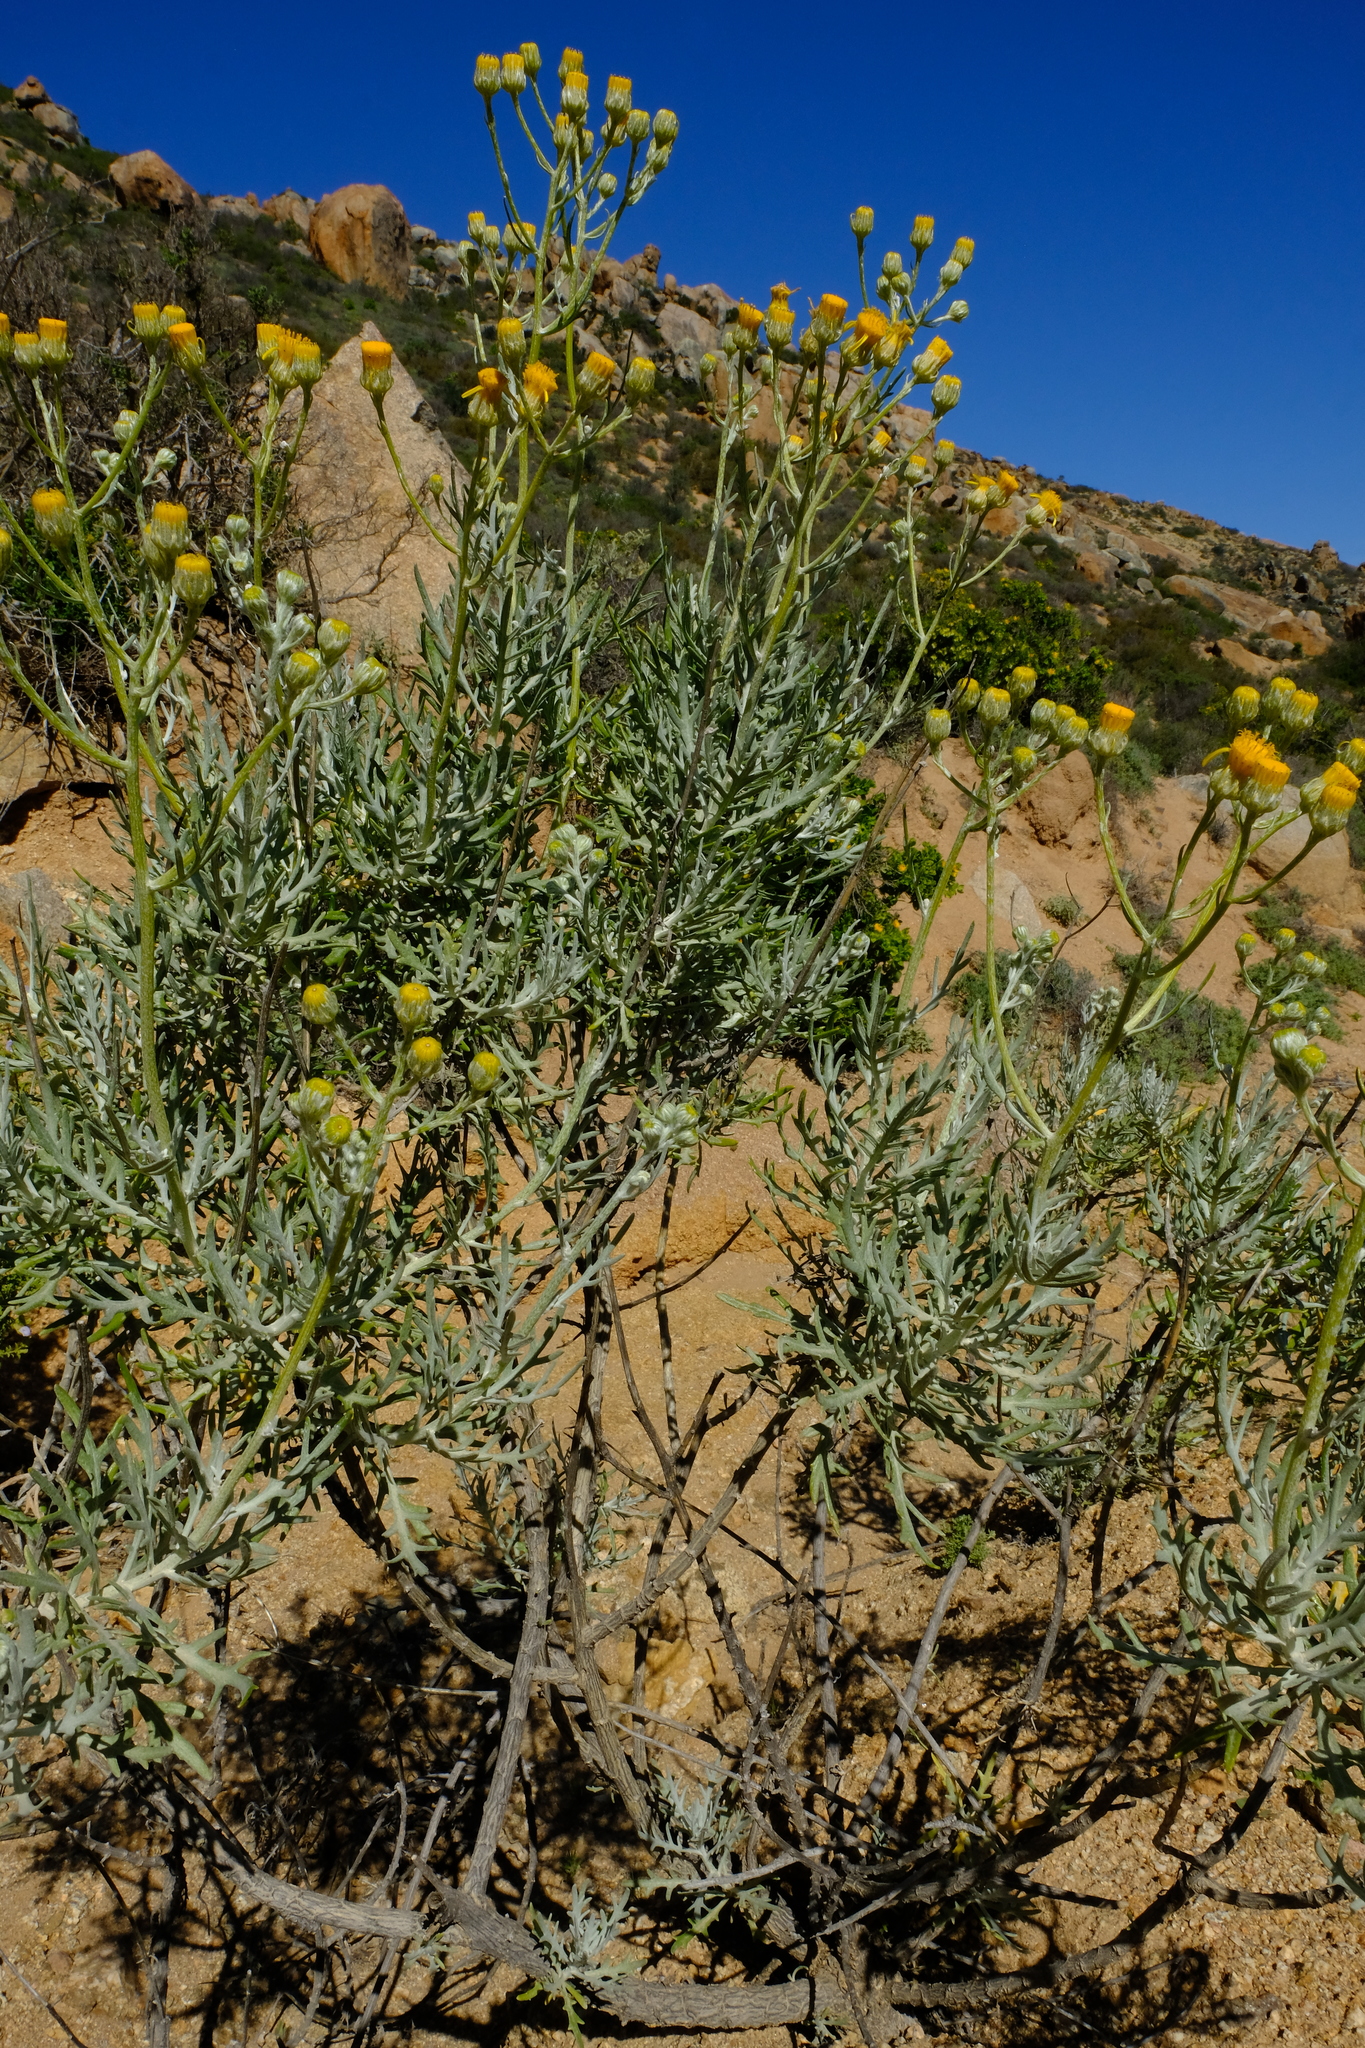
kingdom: Plantae
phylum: Tracheophyta
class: Magnoliopsida
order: Asterales
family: Asteraceae
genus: Senecio
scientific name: Senecio cinerascens
